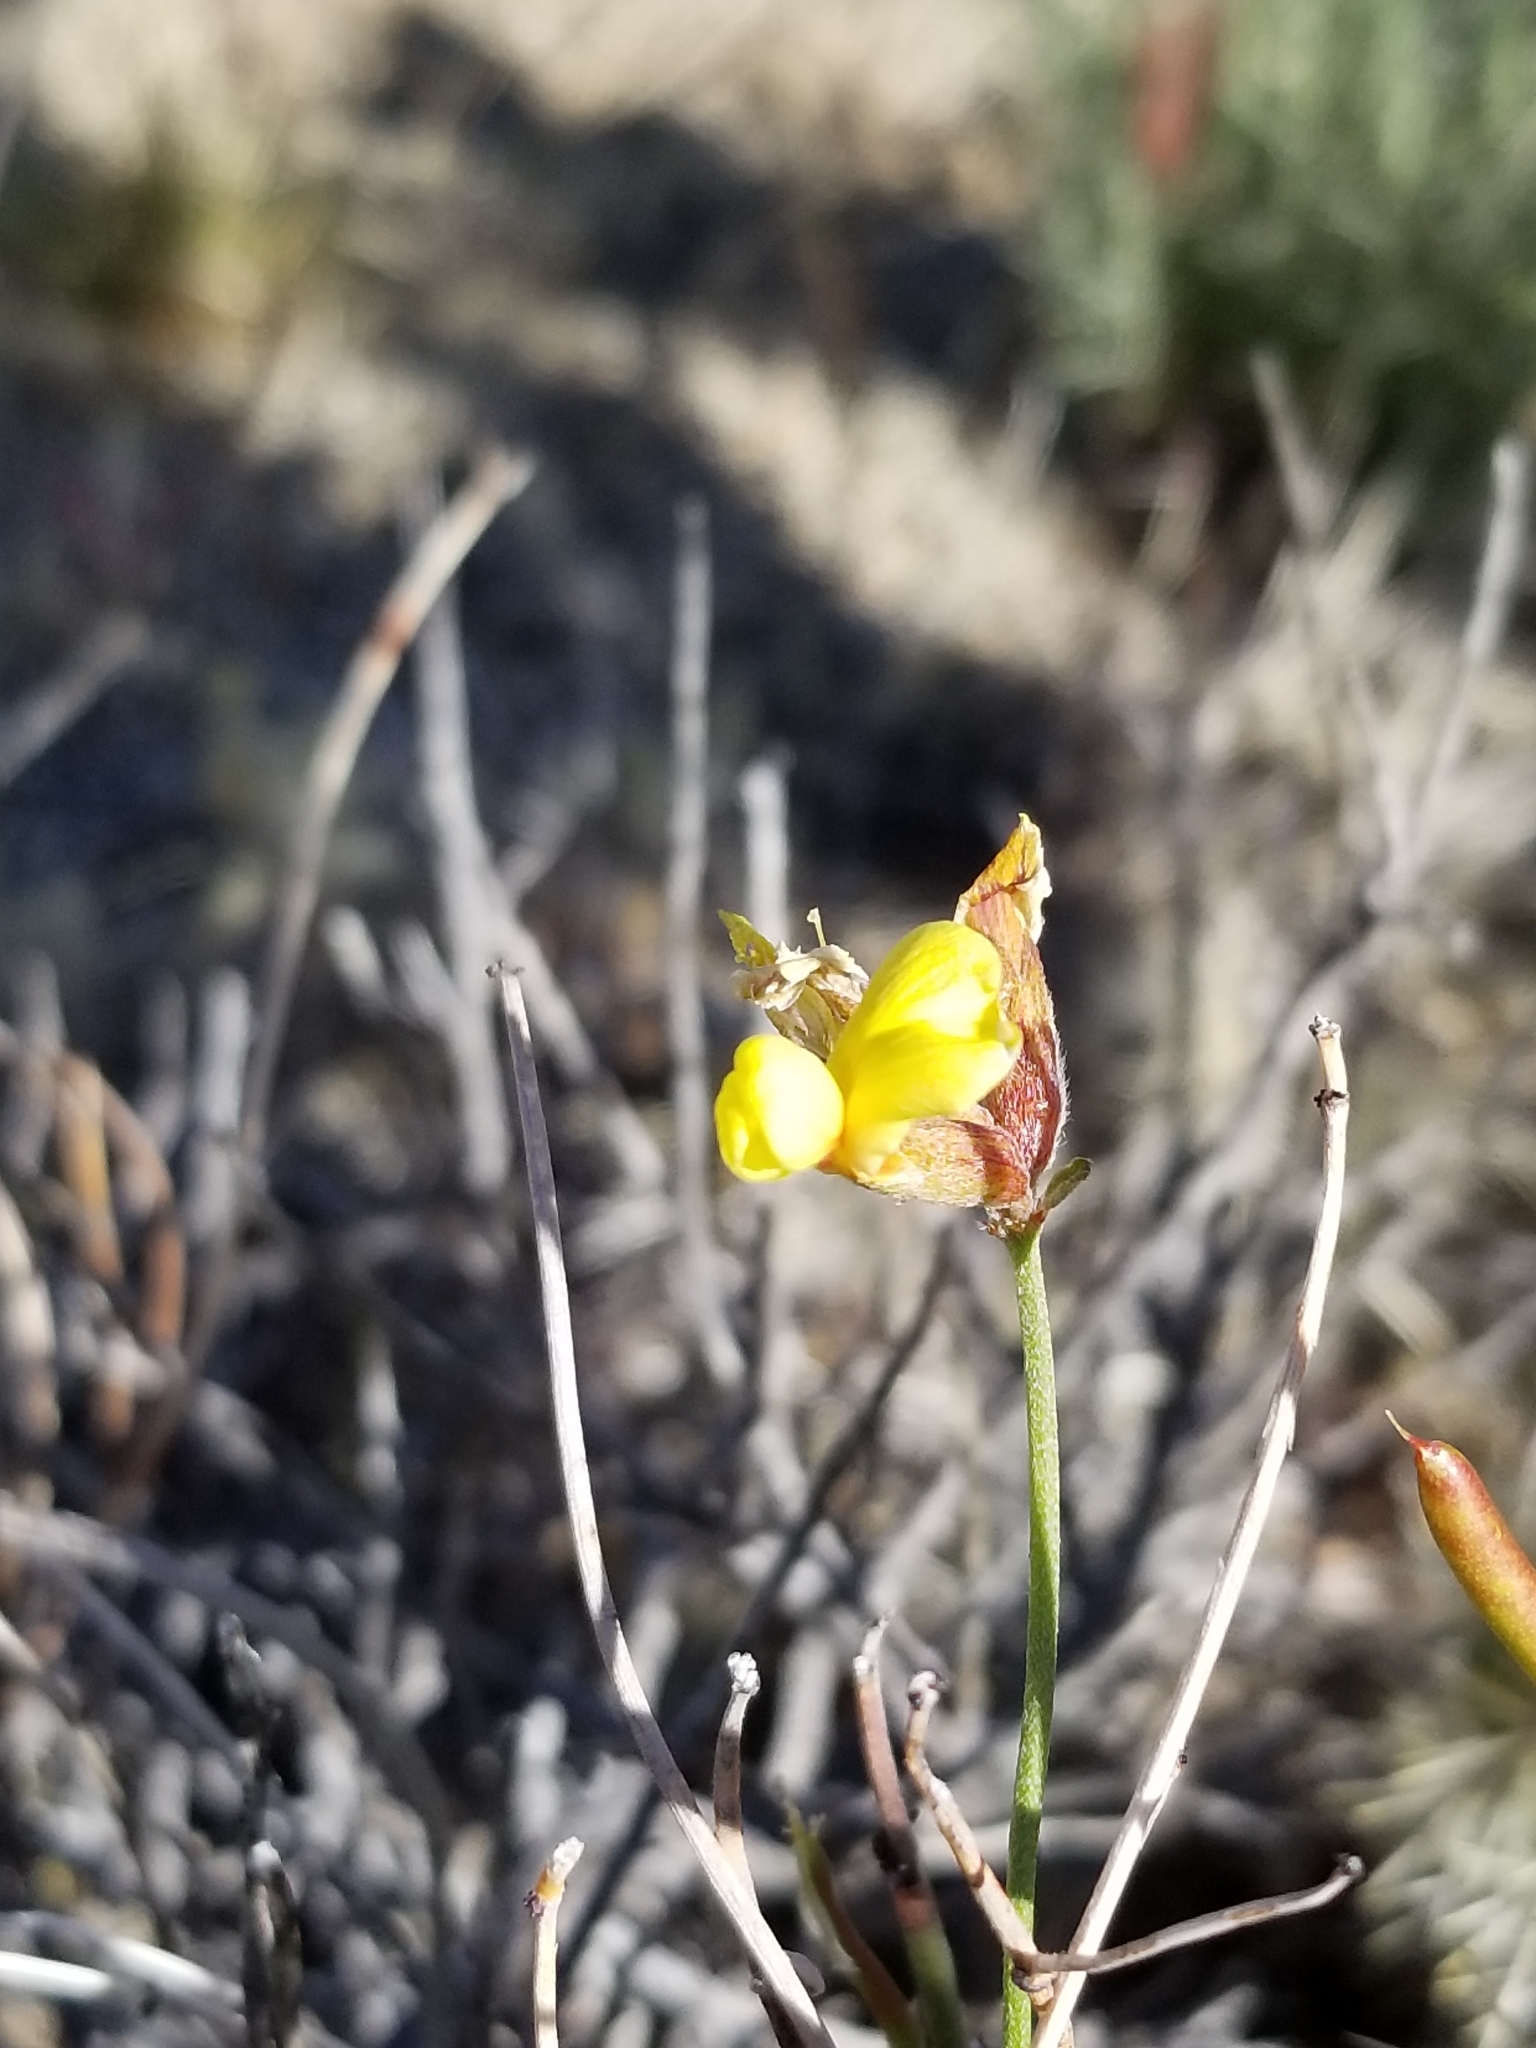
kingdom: Plantae
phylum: Tracheophyta
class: Magnoliopsida
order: Fabales
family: Fabaceae
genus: Acmispon
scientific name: Acmispon rigidus
